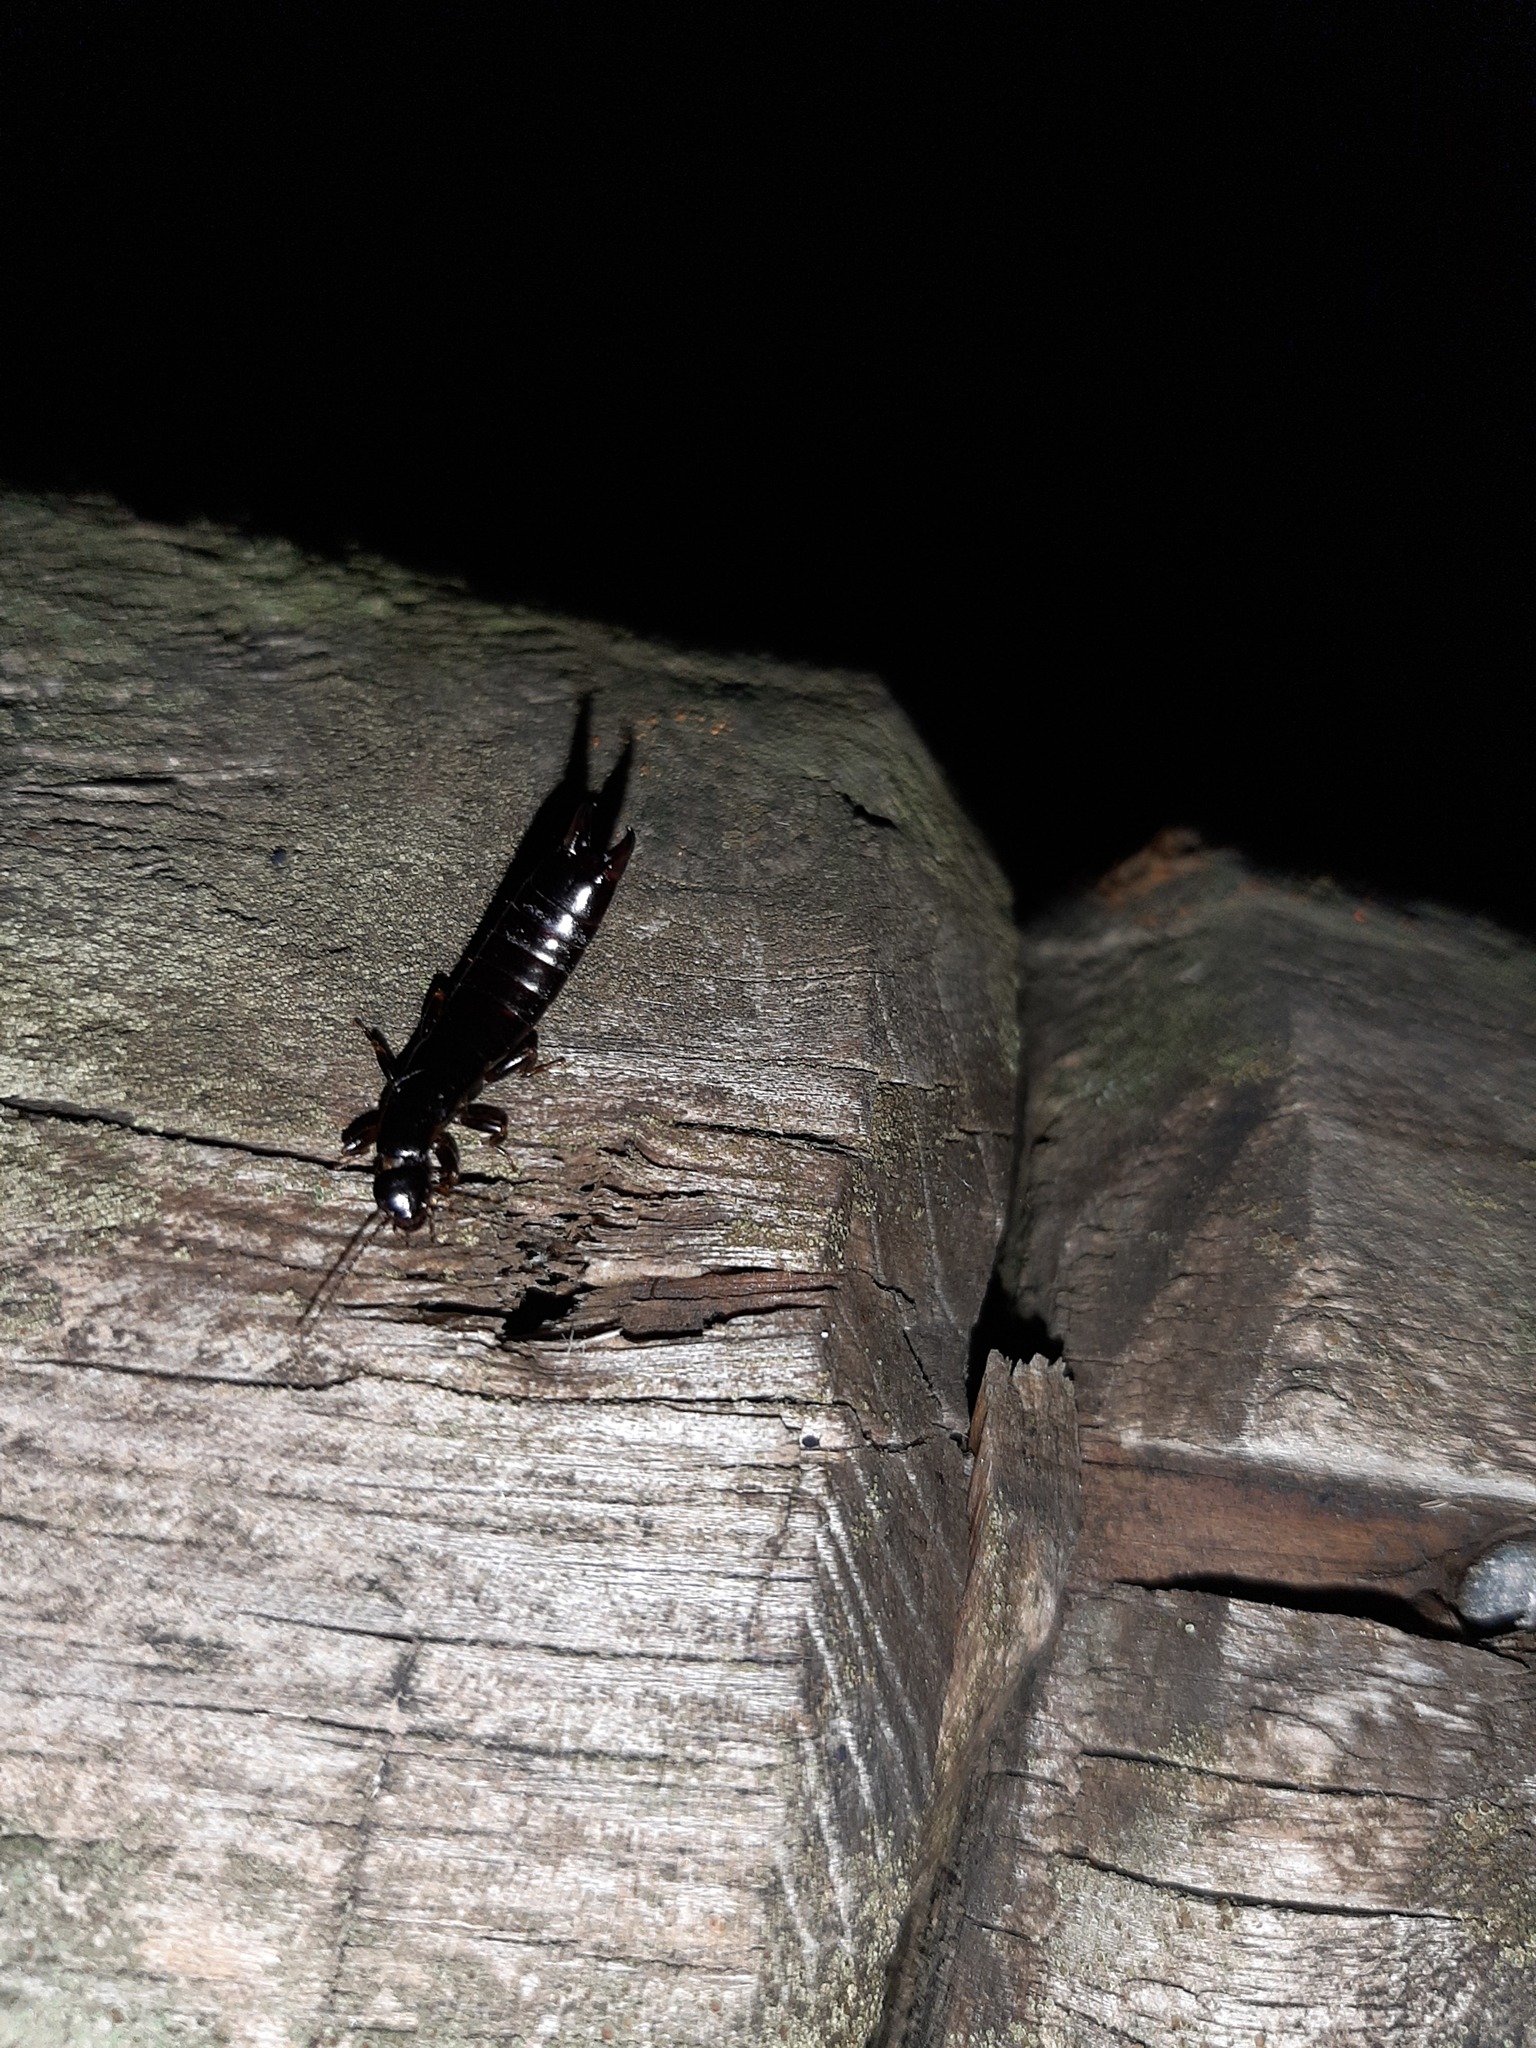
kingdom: Animalia
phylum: Arthropoda
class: Insecta
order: Dermaptera
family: Anisolabididae
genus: Euborellia
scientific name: Euborellia moesta
